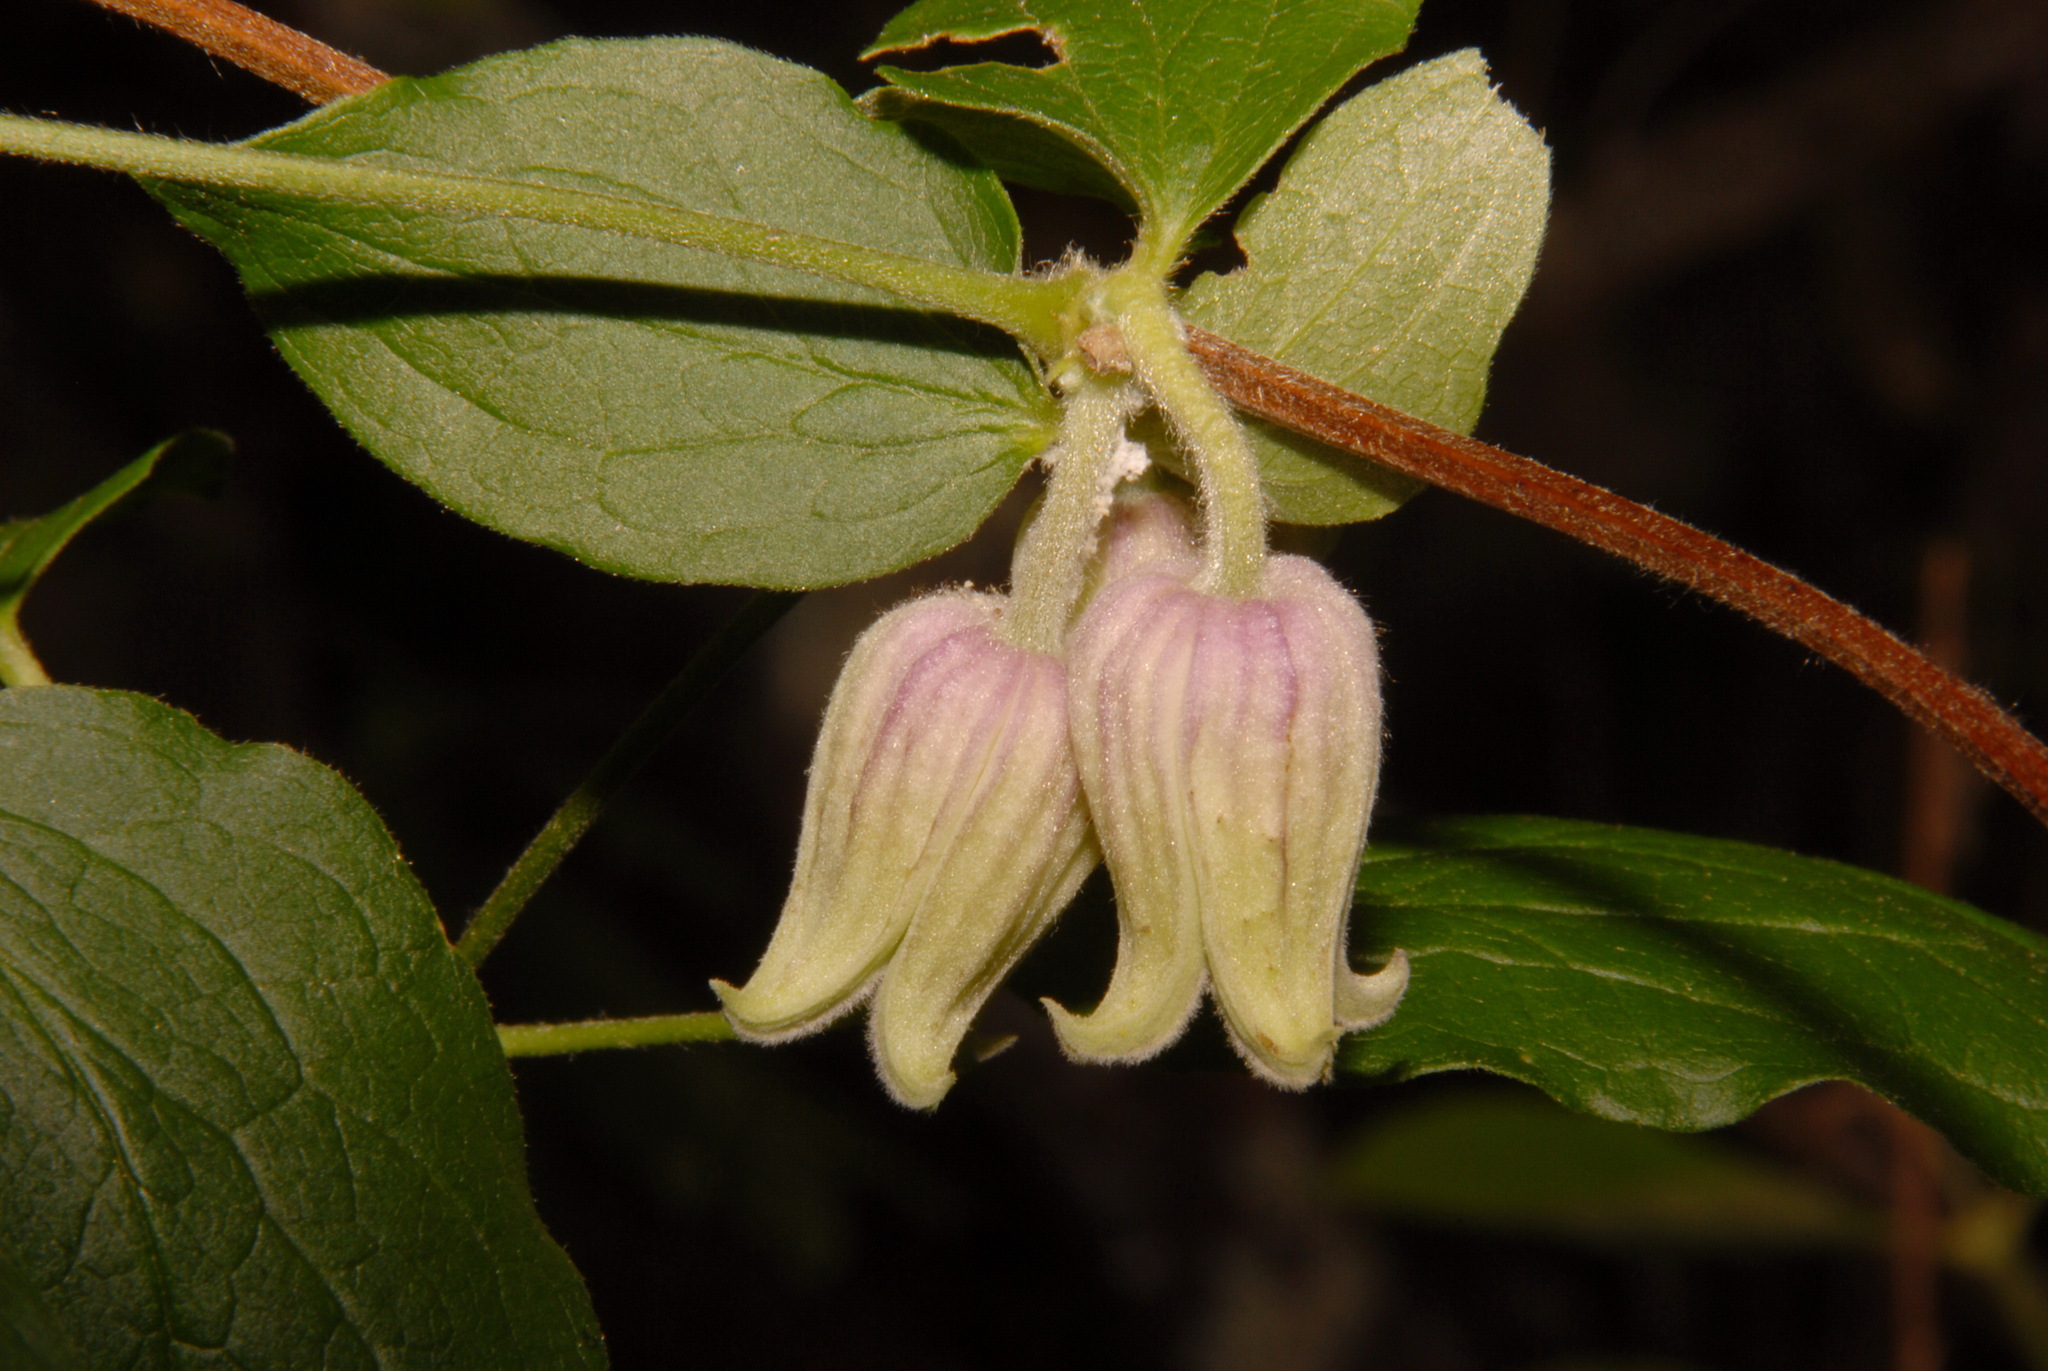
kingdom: Plantae
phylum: Tracheophyta
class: Magnoliopsida
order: Ranunculales
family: Ranunculaceae
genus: Clematis
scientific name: Clematis morefieldii
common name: Morefield's clematis
